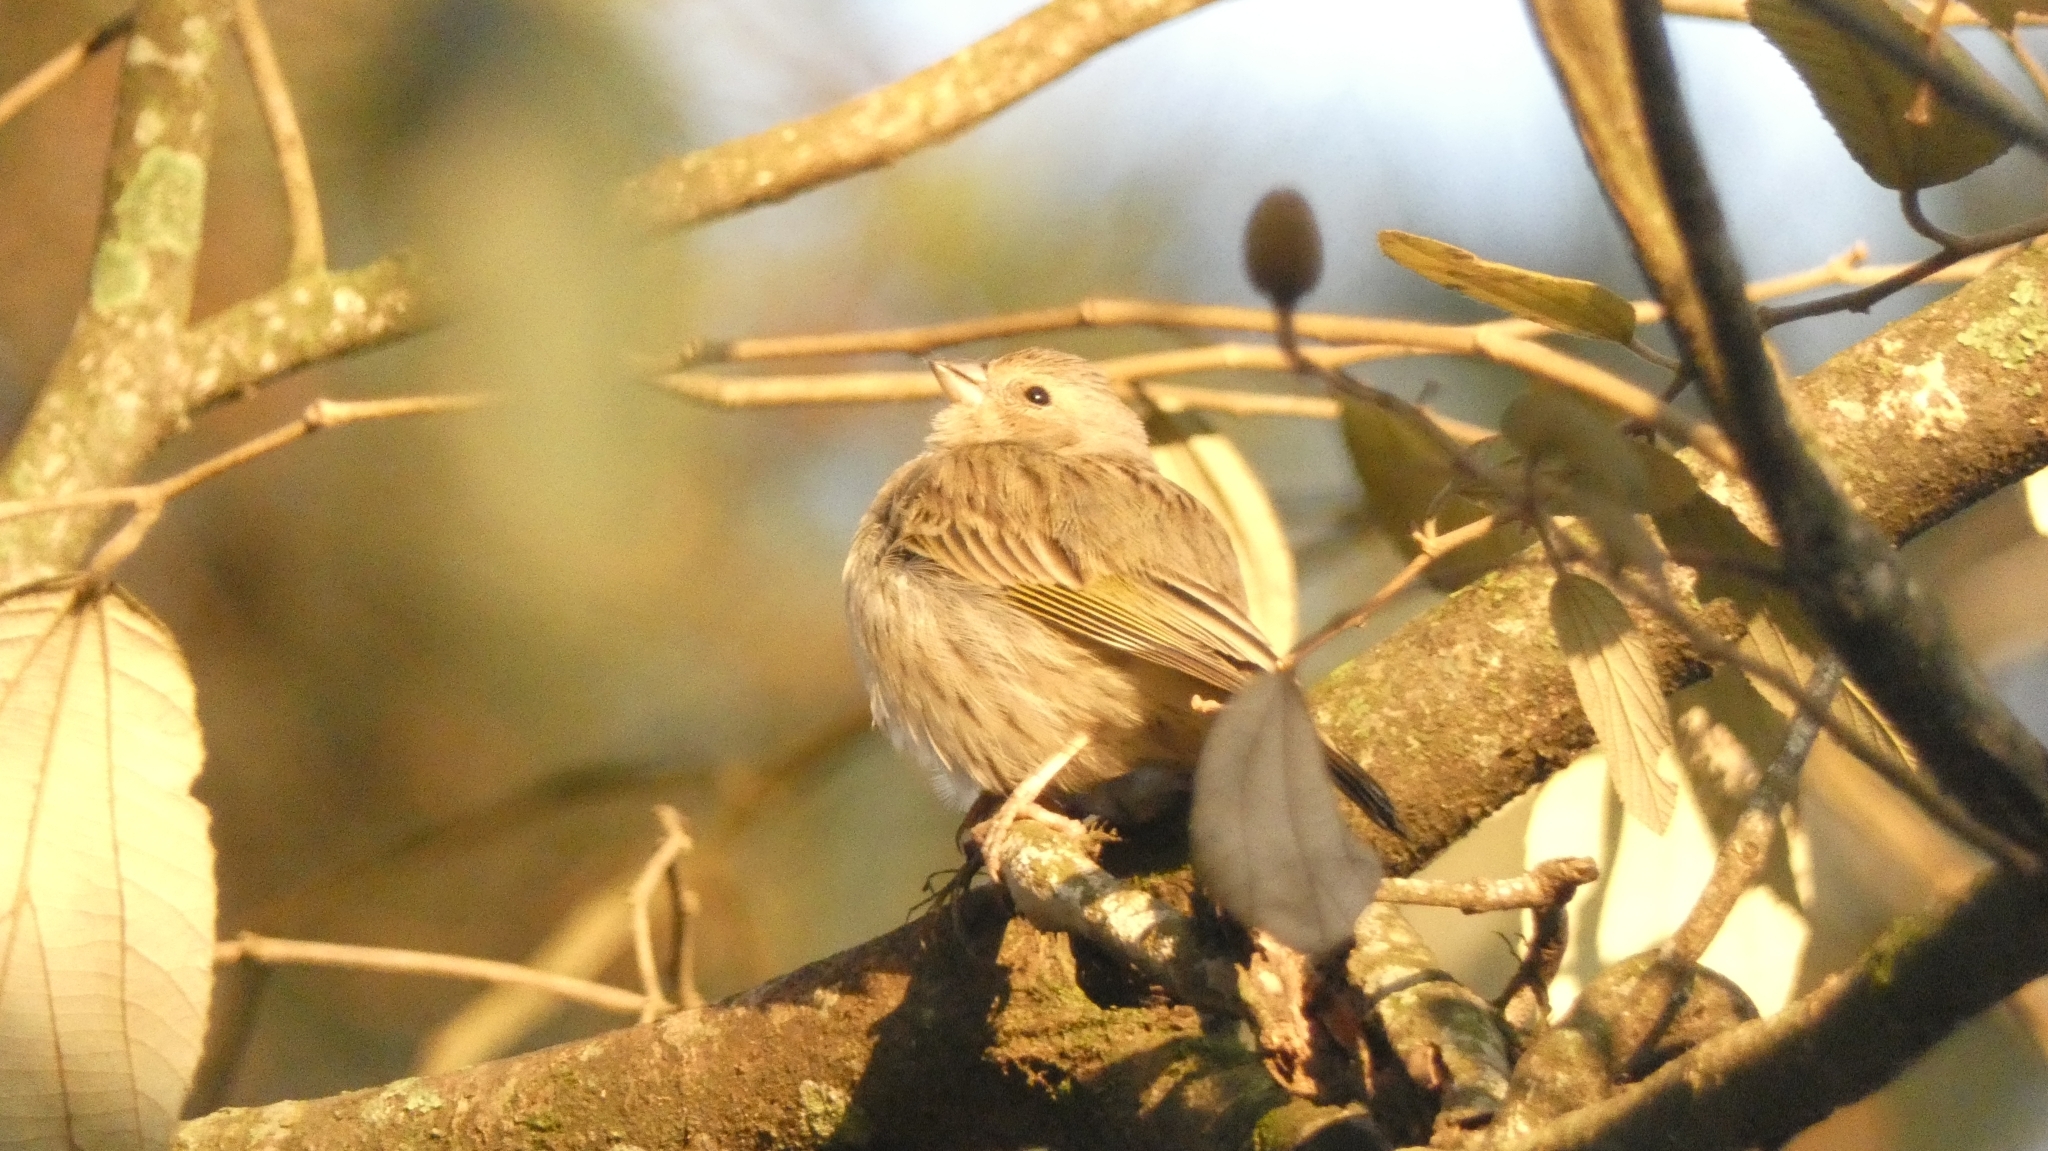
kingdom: Animalia
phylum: Chordata
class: Aves
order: Passeriformes
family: Thraupidae
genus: Sicalis
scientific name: Sicalis flaveola
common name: Saffron finch
